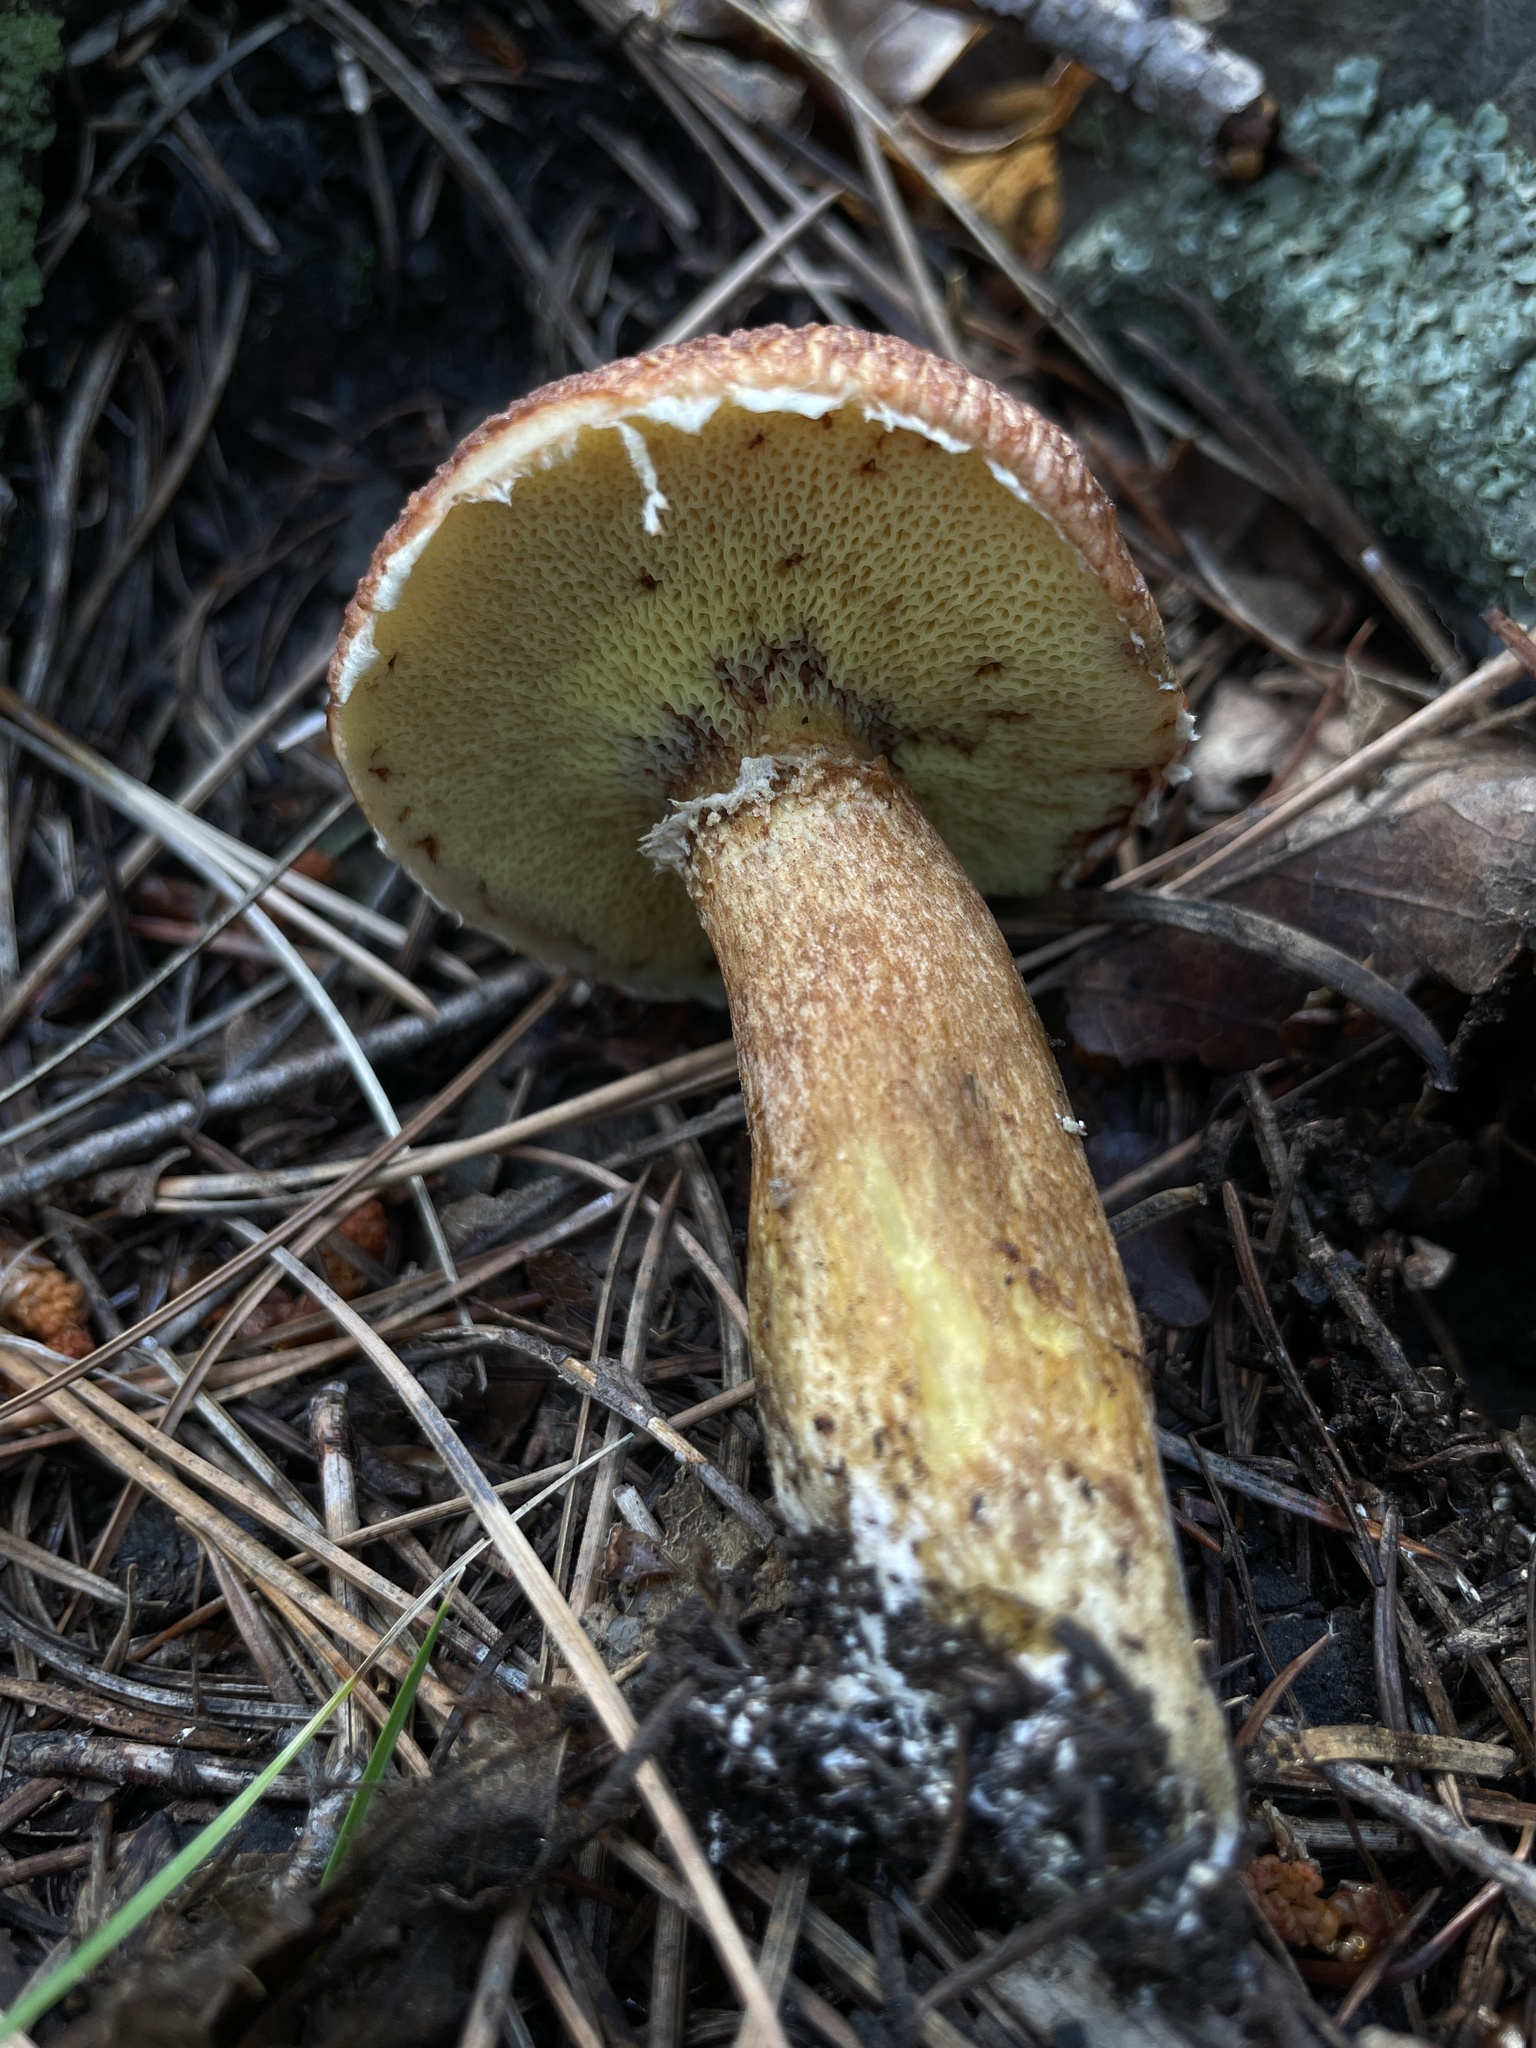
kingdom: Fungi
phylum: Basidiomycota
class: Agaricomycetes
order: Boletales
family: Suillaceae
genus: Suillus
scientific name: Suillus lakei
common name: Western painted suillus
